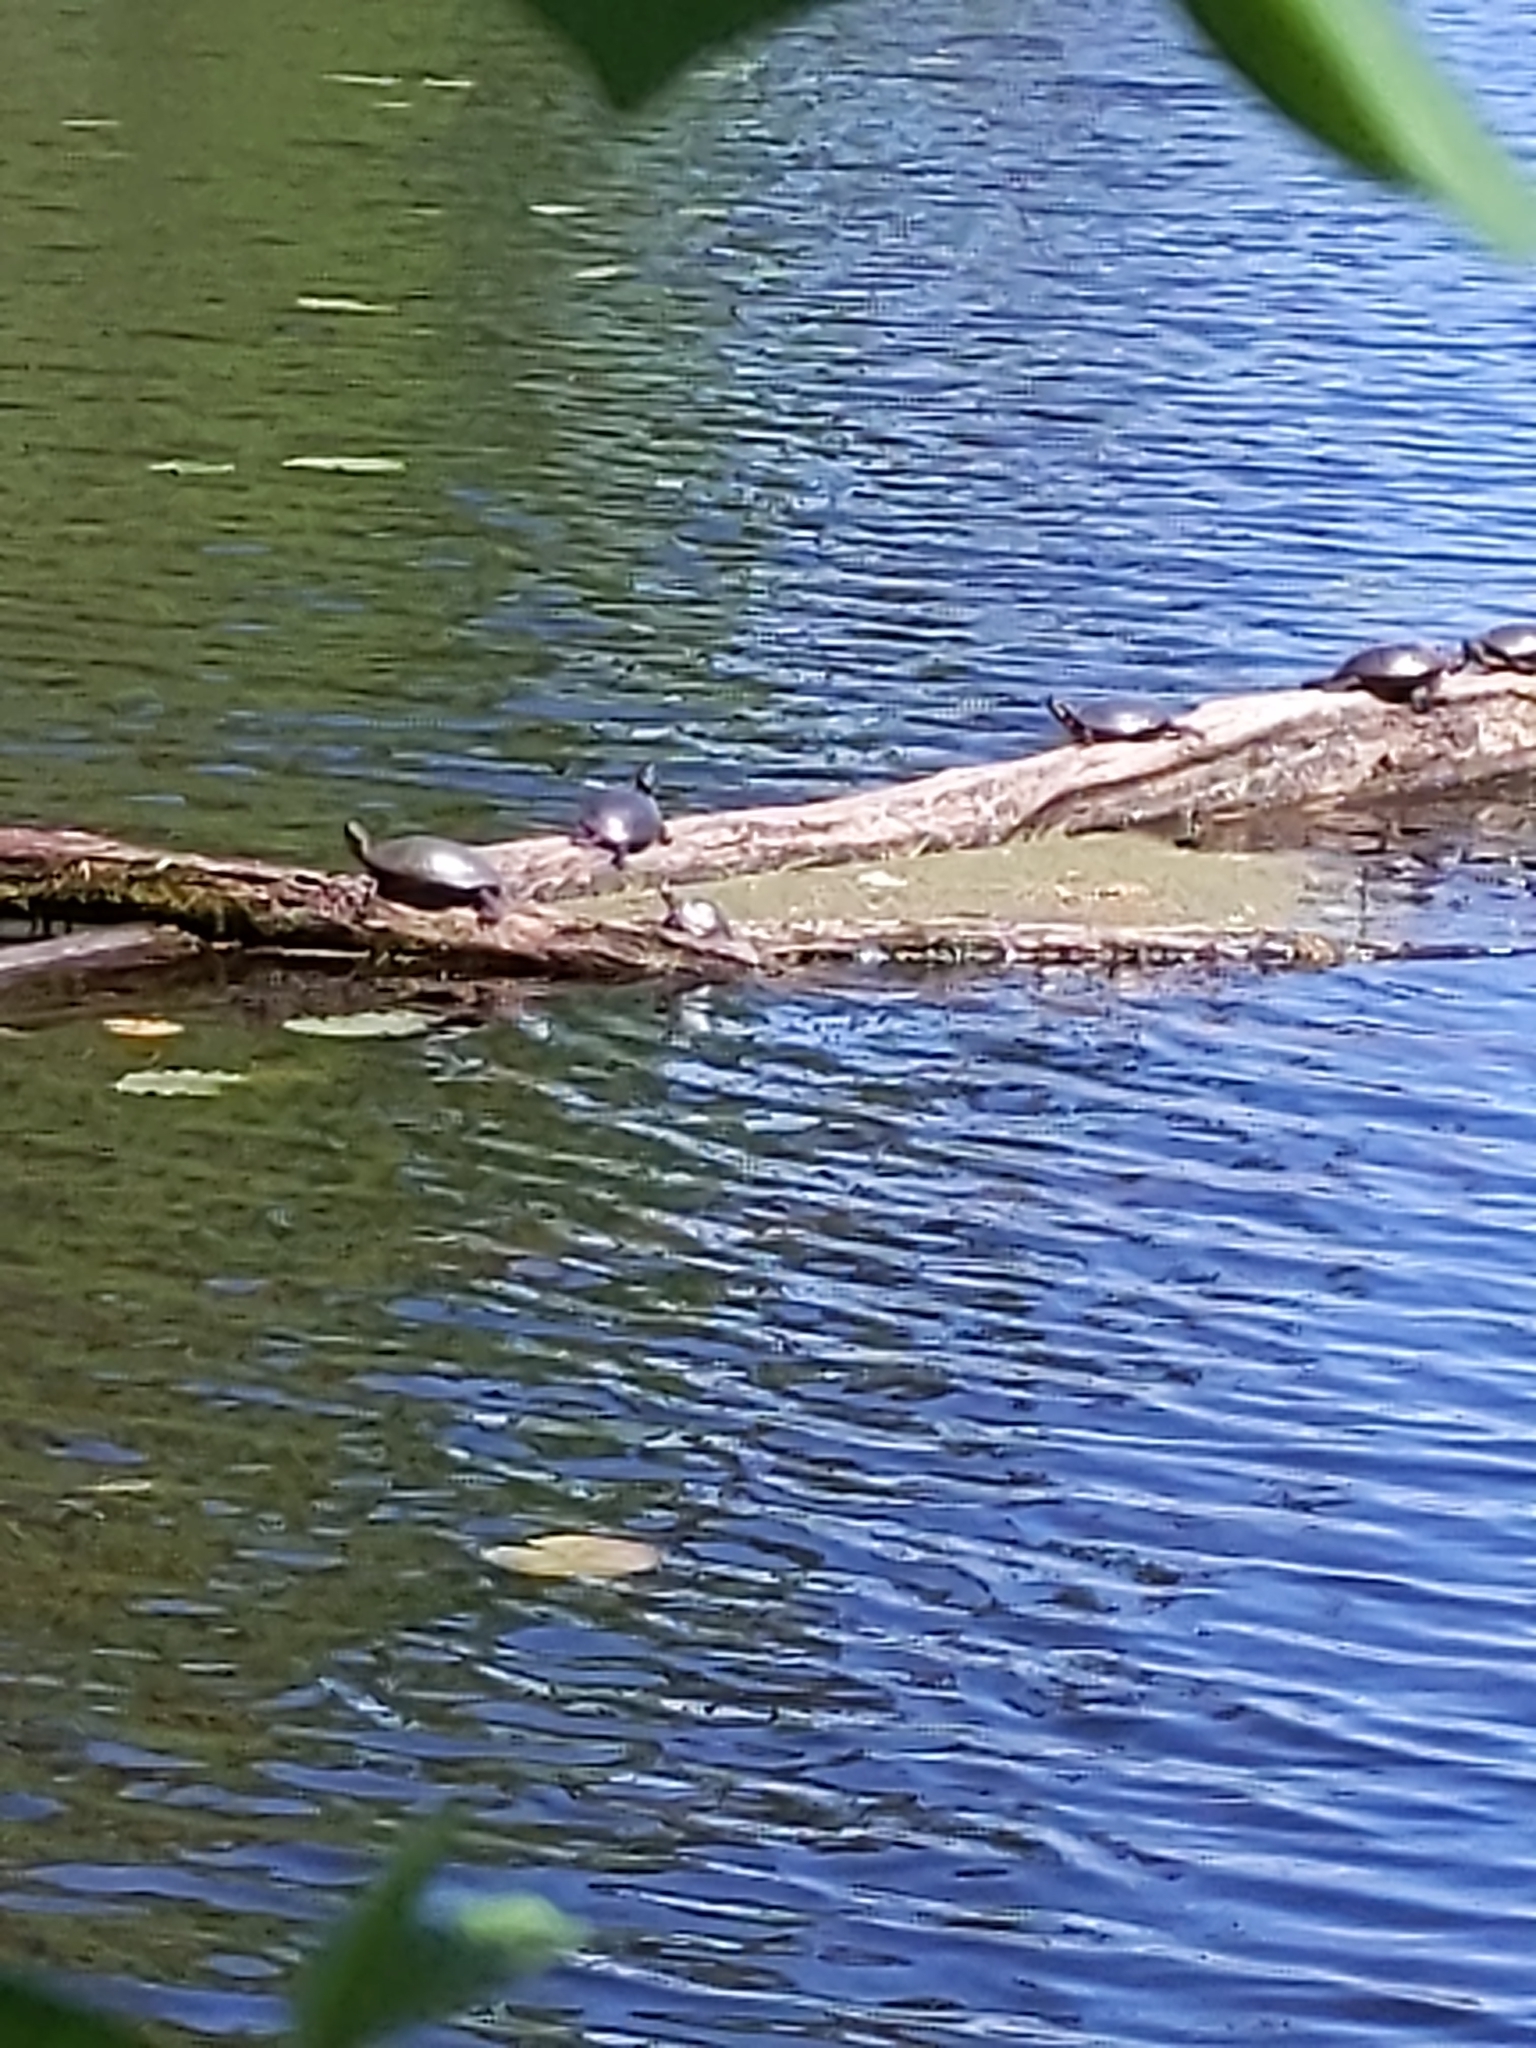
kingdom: Animalia
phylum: Chordata
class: Testudines
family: Emydidae
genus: Chrysemys
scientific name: Chrysemys picta
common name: Painted turtle
